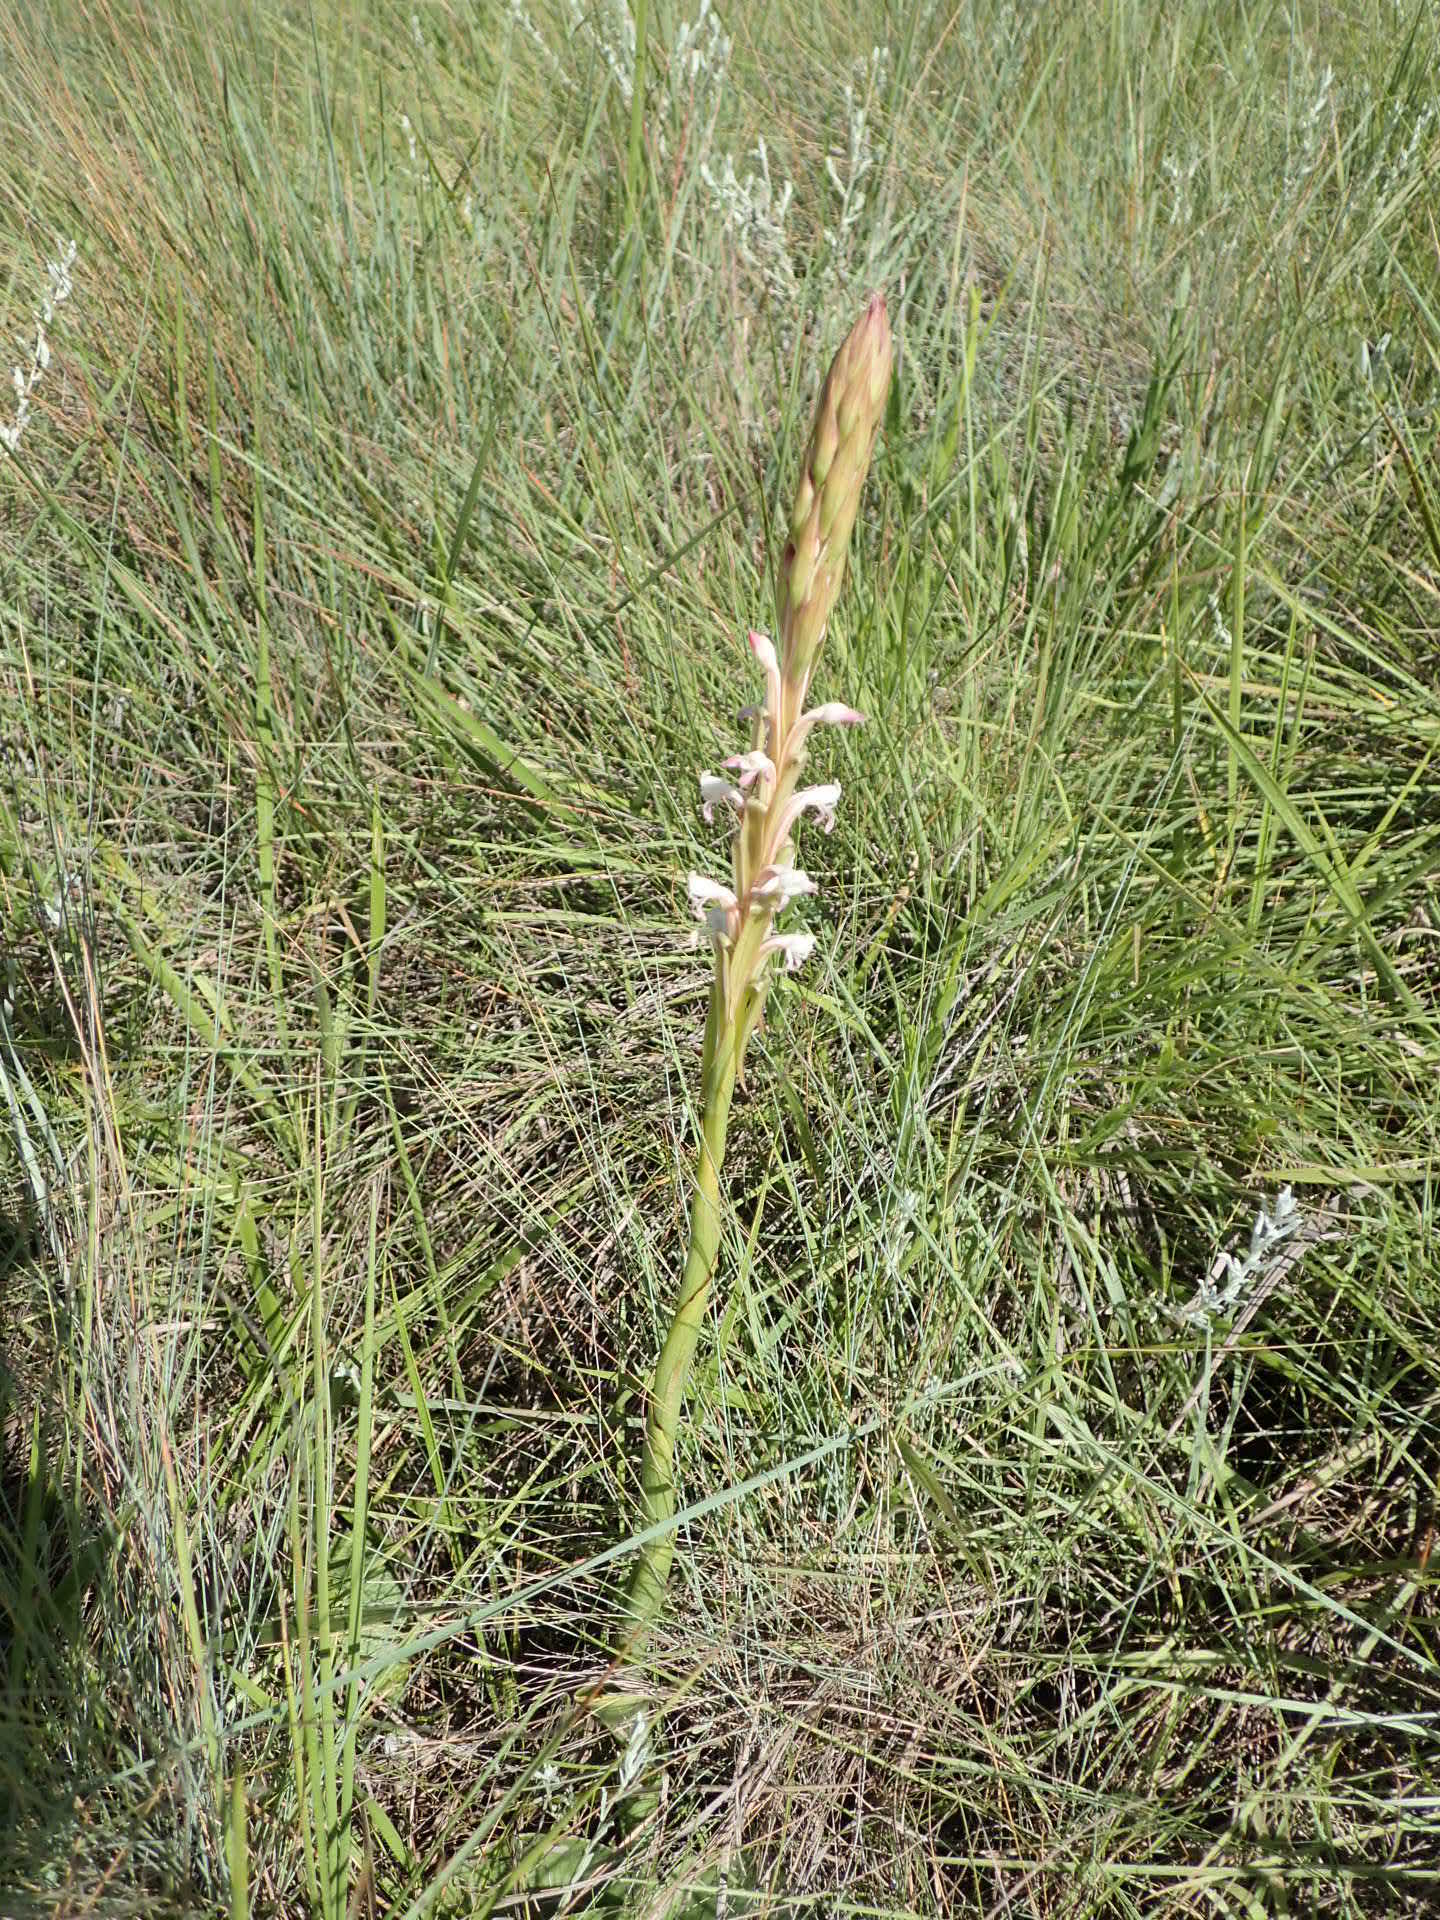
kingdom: Plantae
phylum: Tracheophyta
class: Liliopsida
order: Asparagales
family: Orchidaceae
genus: Satyrium
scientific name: Satyrium longicauda
